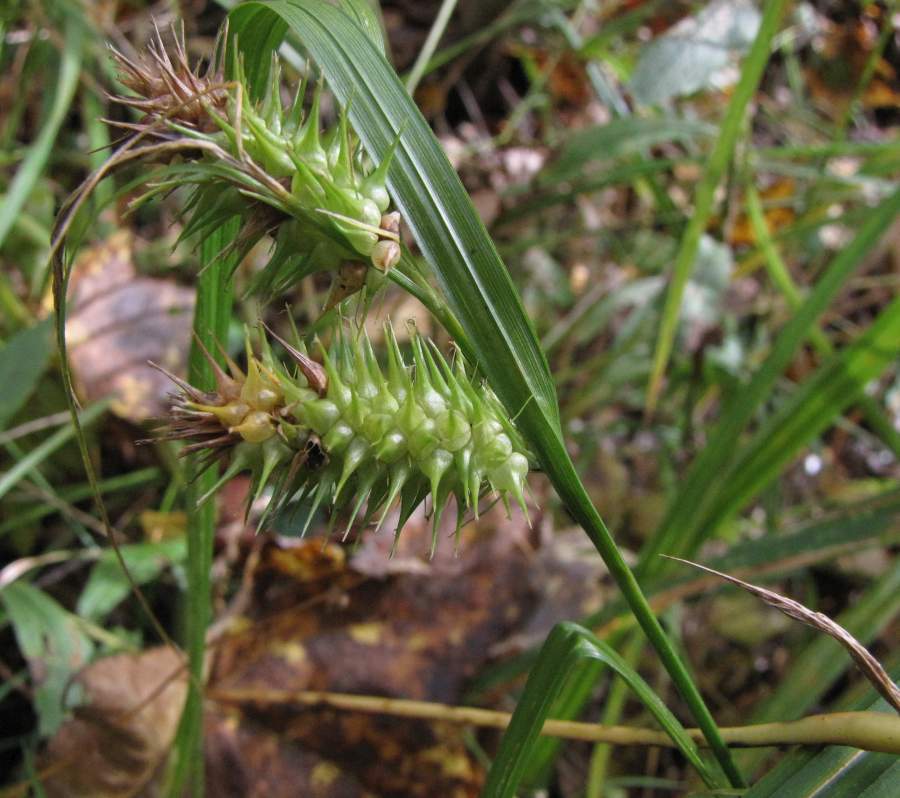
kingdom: Plantae
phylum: Tracheophyta
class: Liliopsida
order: Poales
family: Cyperaceae
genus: Carex
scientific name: Carex lupulina
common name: Hop sedge
